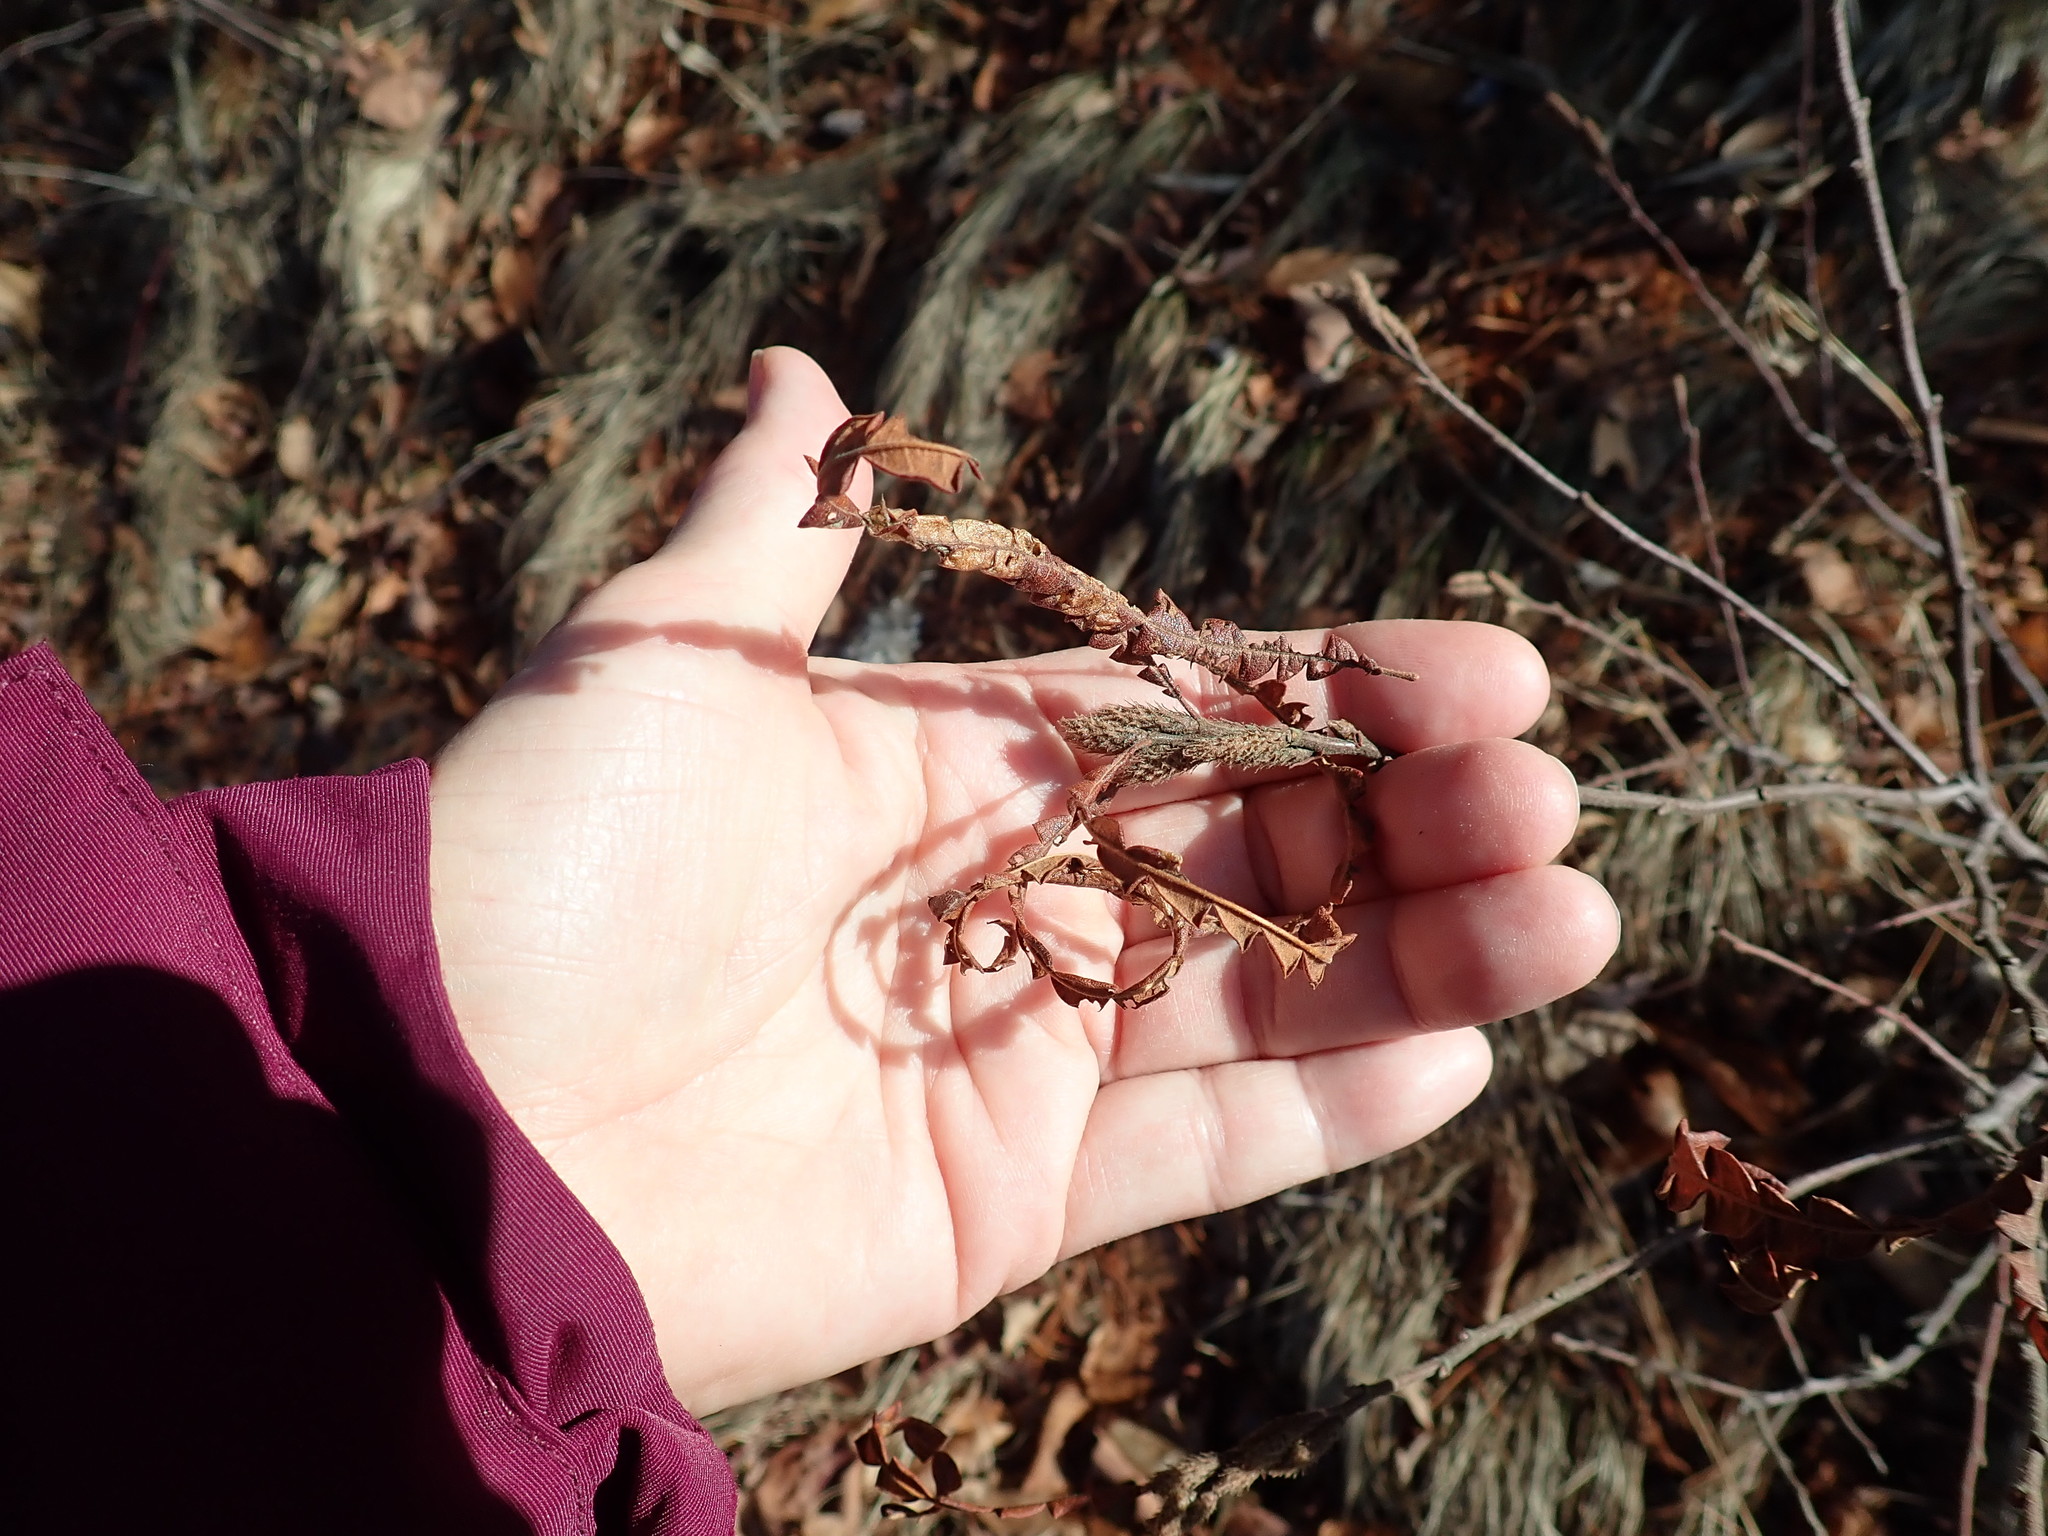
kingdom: Plantae
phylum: Tracheophyta
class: Magnoliopsida
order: Fagales
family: Myricaceae
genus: Comptonia
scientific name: Comptonia peregrina
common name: Sweet-fern
